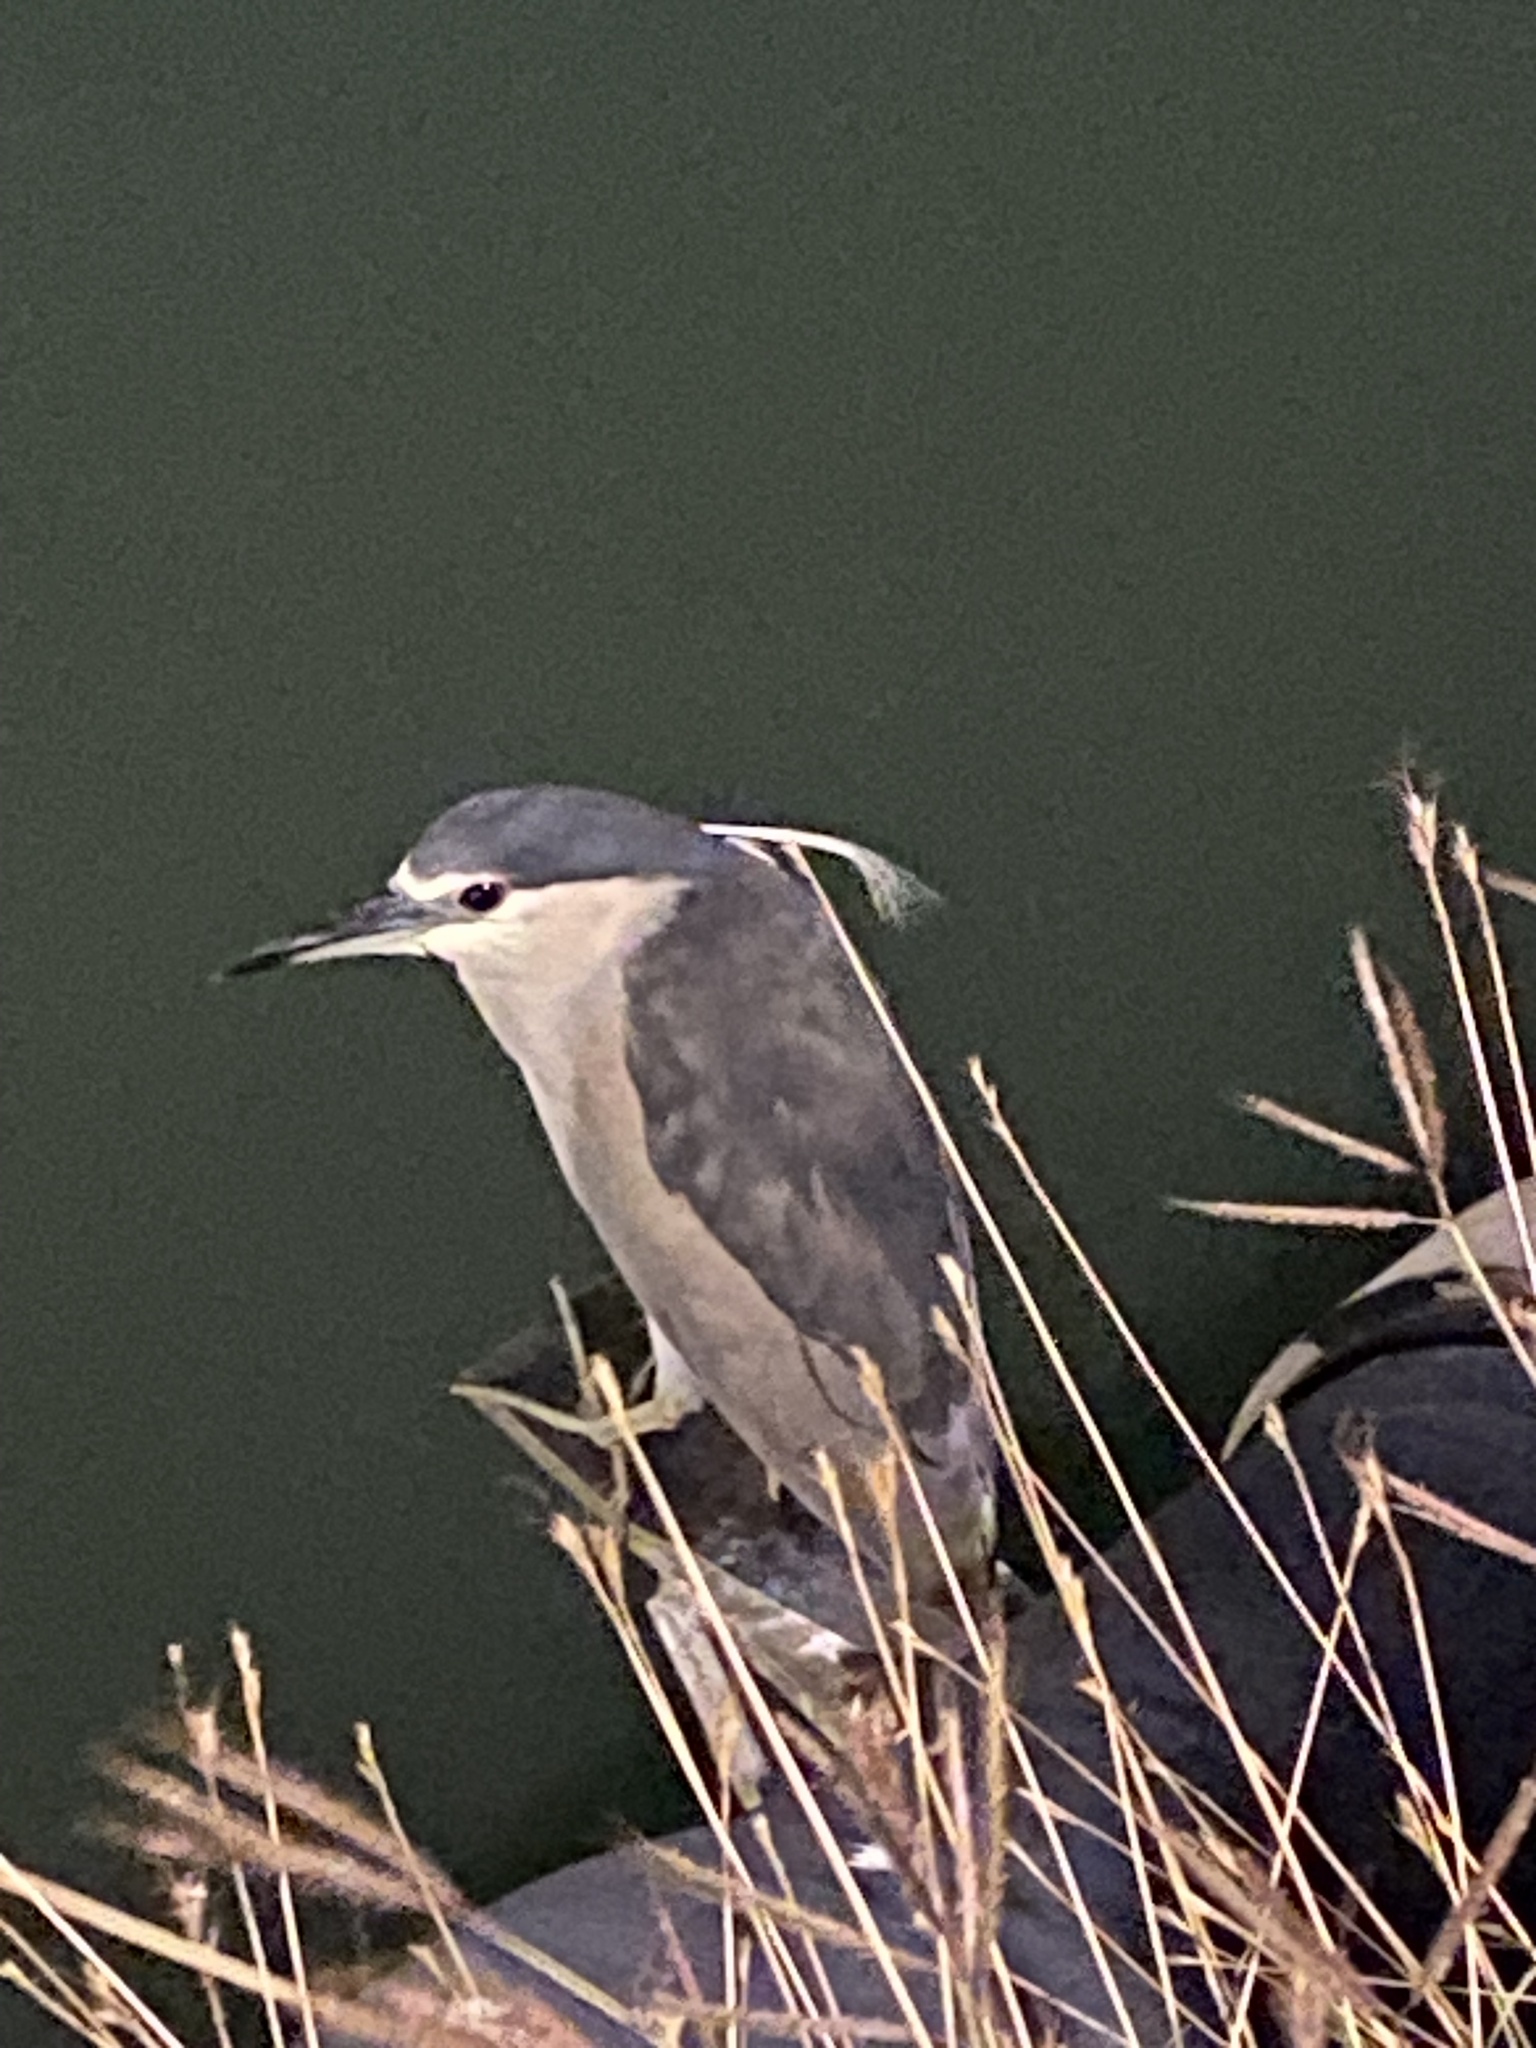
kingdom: Animalia
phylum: Chordata
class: Aves
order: Pelecaniformes
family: Ardeidae
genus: Nycticorax
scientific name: Nycticorax nycticorax
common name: Black-crowned night heron
